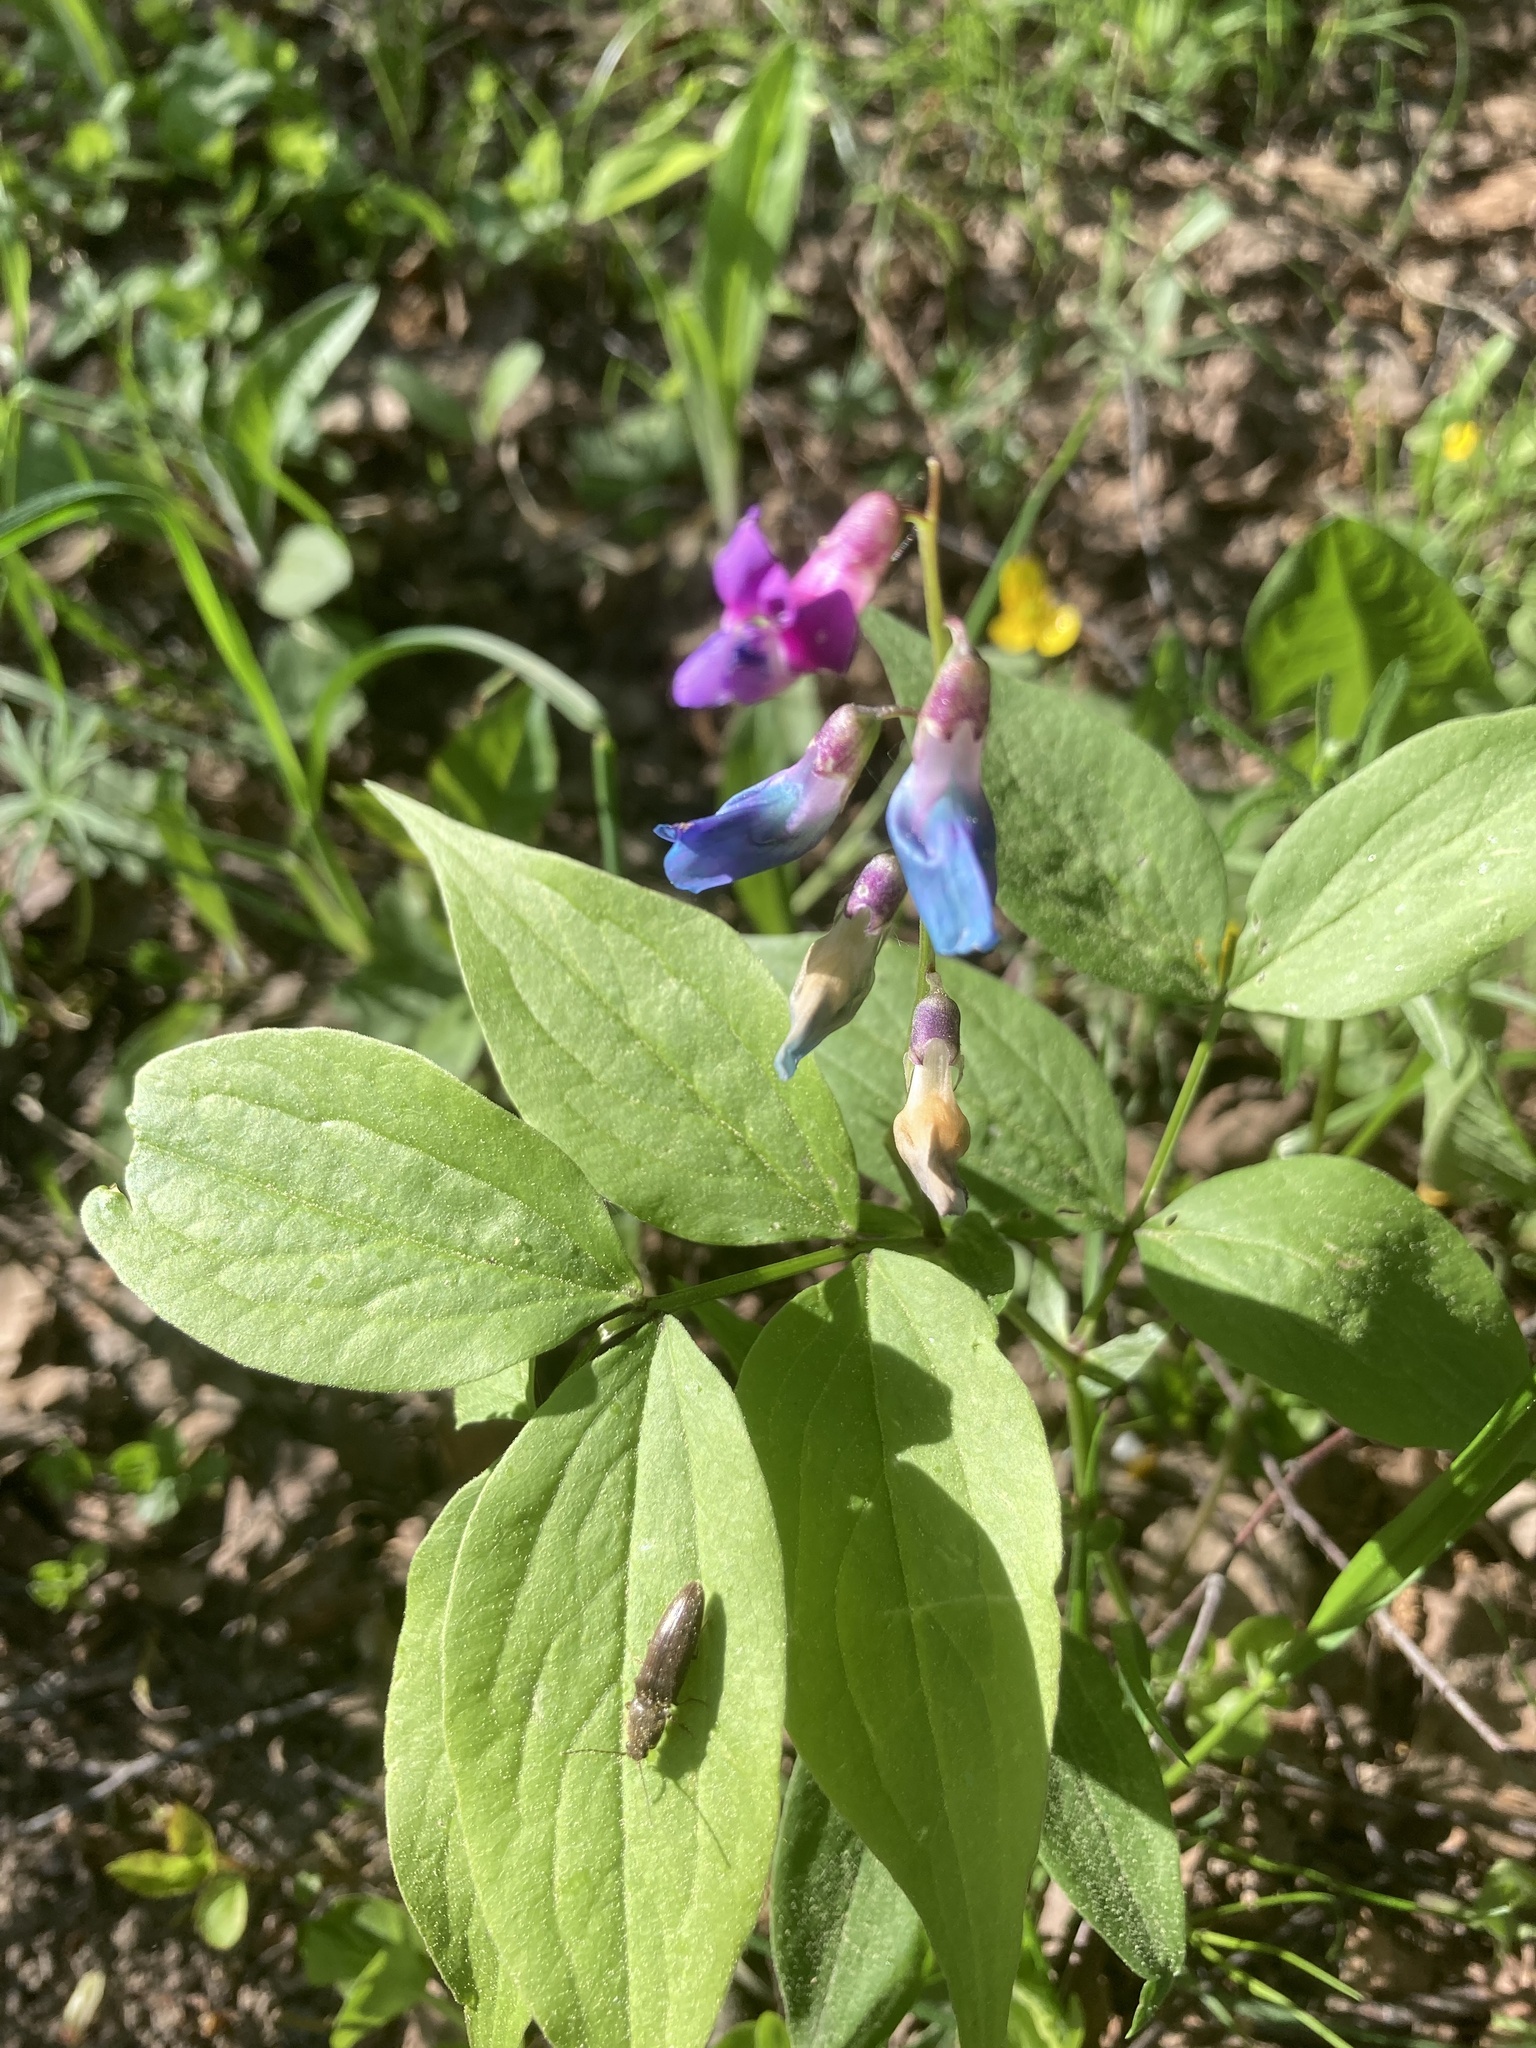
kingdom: Plantae
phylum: Tracheophyta
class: Magnoliopsida
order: Fabales
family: Fabaceae
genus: Lathyrus
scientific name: Lathyrus vernus
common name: Spring pea
